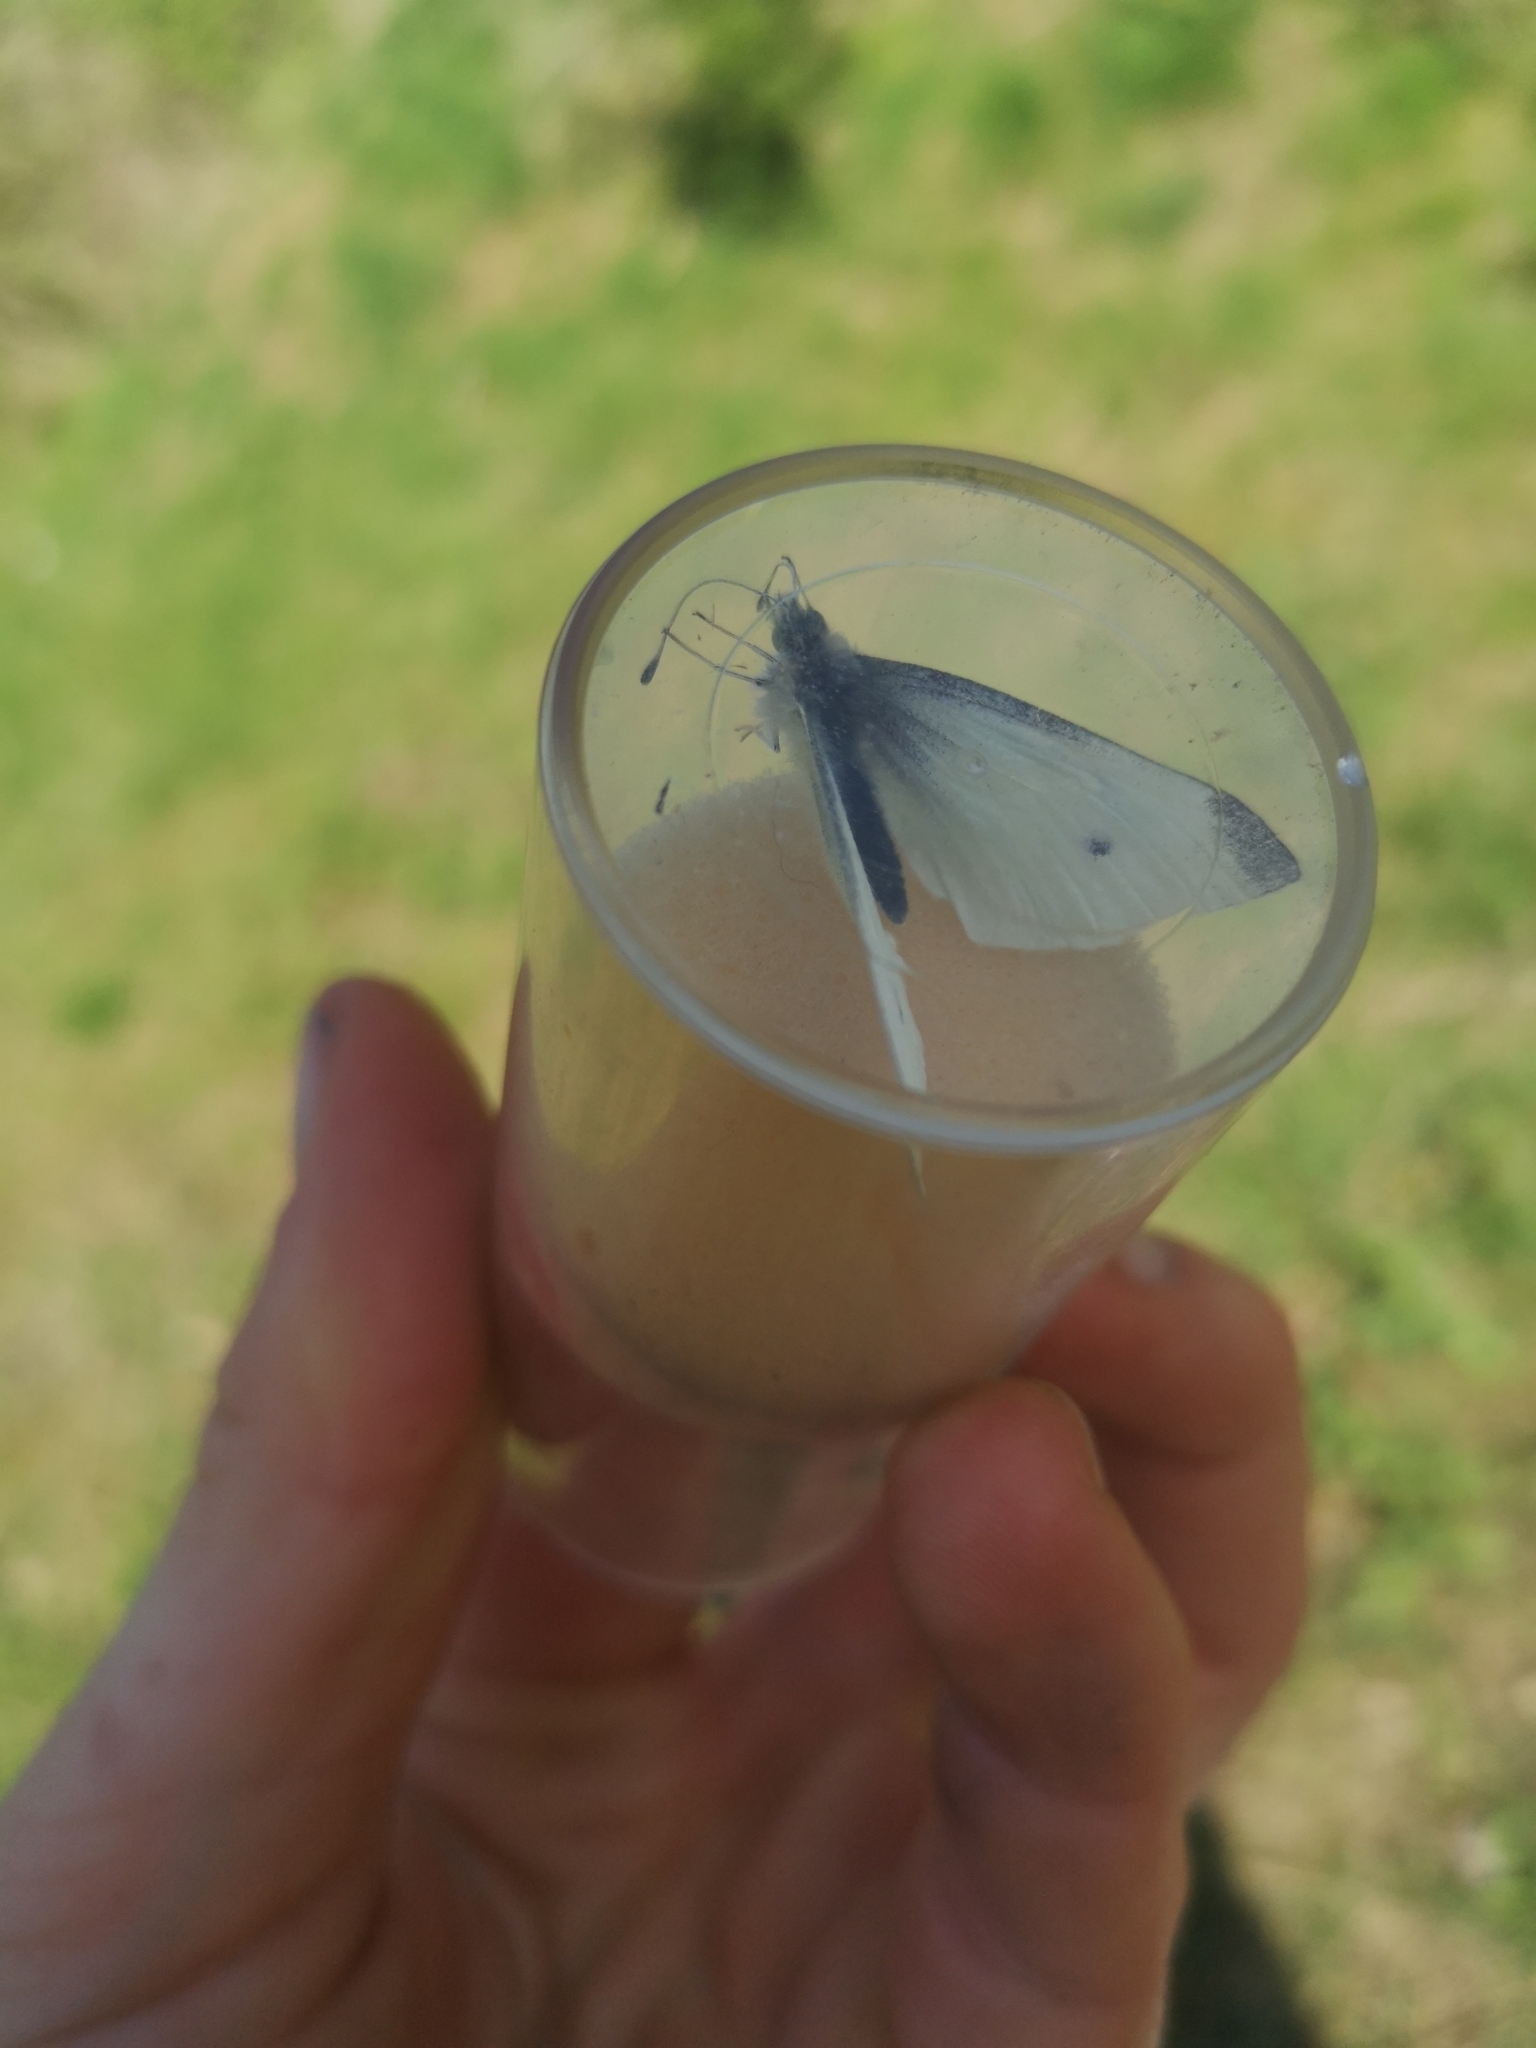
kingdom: Animalia
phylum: Arthropoda
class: Insecta
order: Lepidoptera
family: Pieridae
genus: Pieris
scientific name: Pieris rapae
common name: Small white
